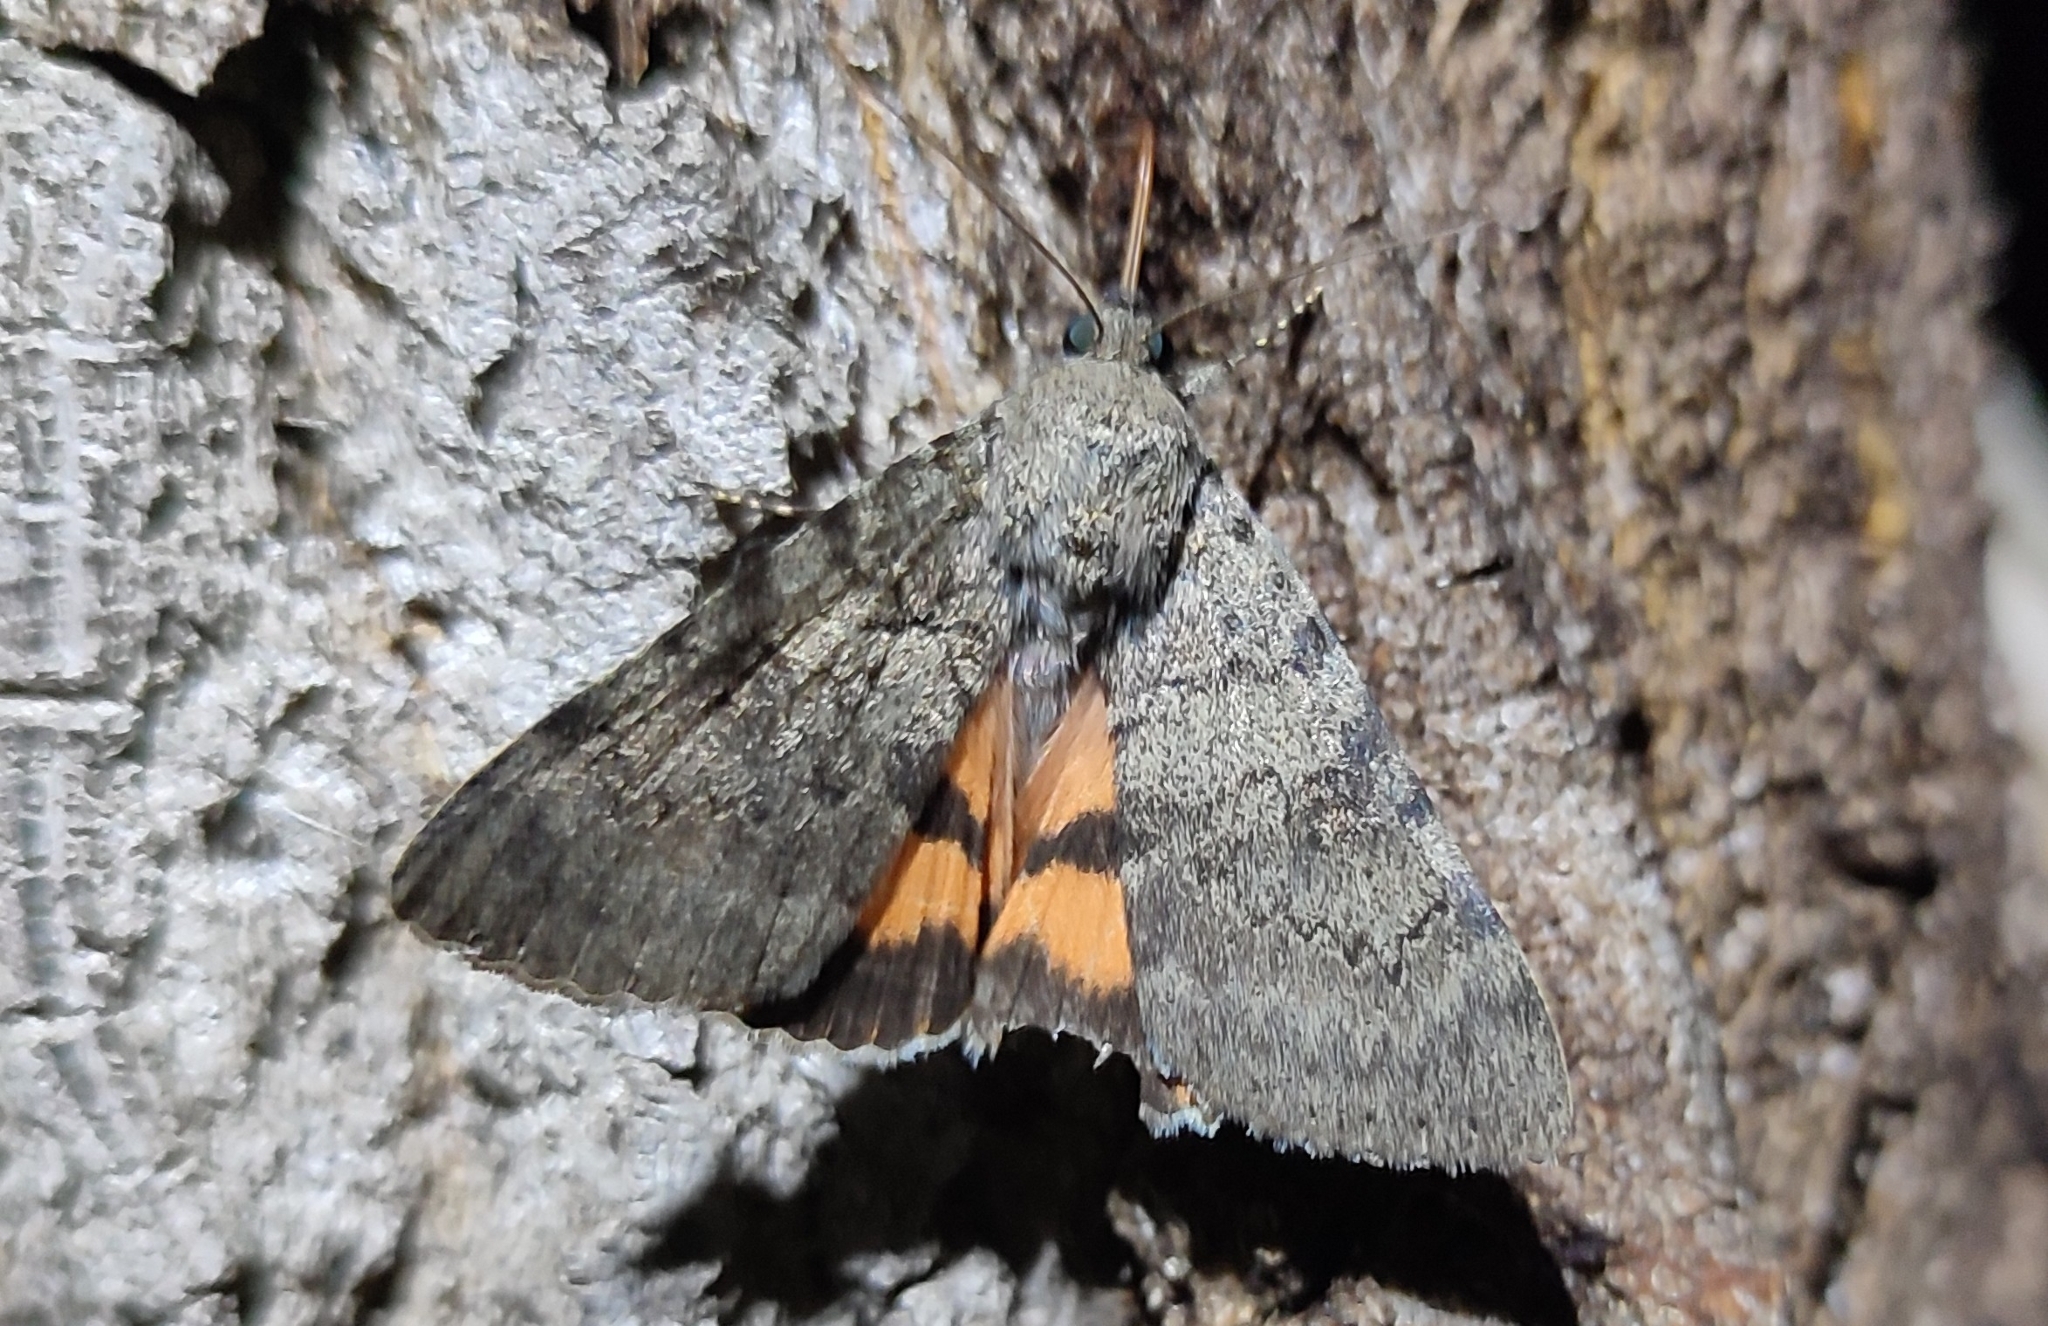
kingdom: Animalia
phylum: Arthropoda
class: Insecta
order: Lepidoptera
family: Erebidae
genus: Catocala
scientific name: Catocala puerpera
